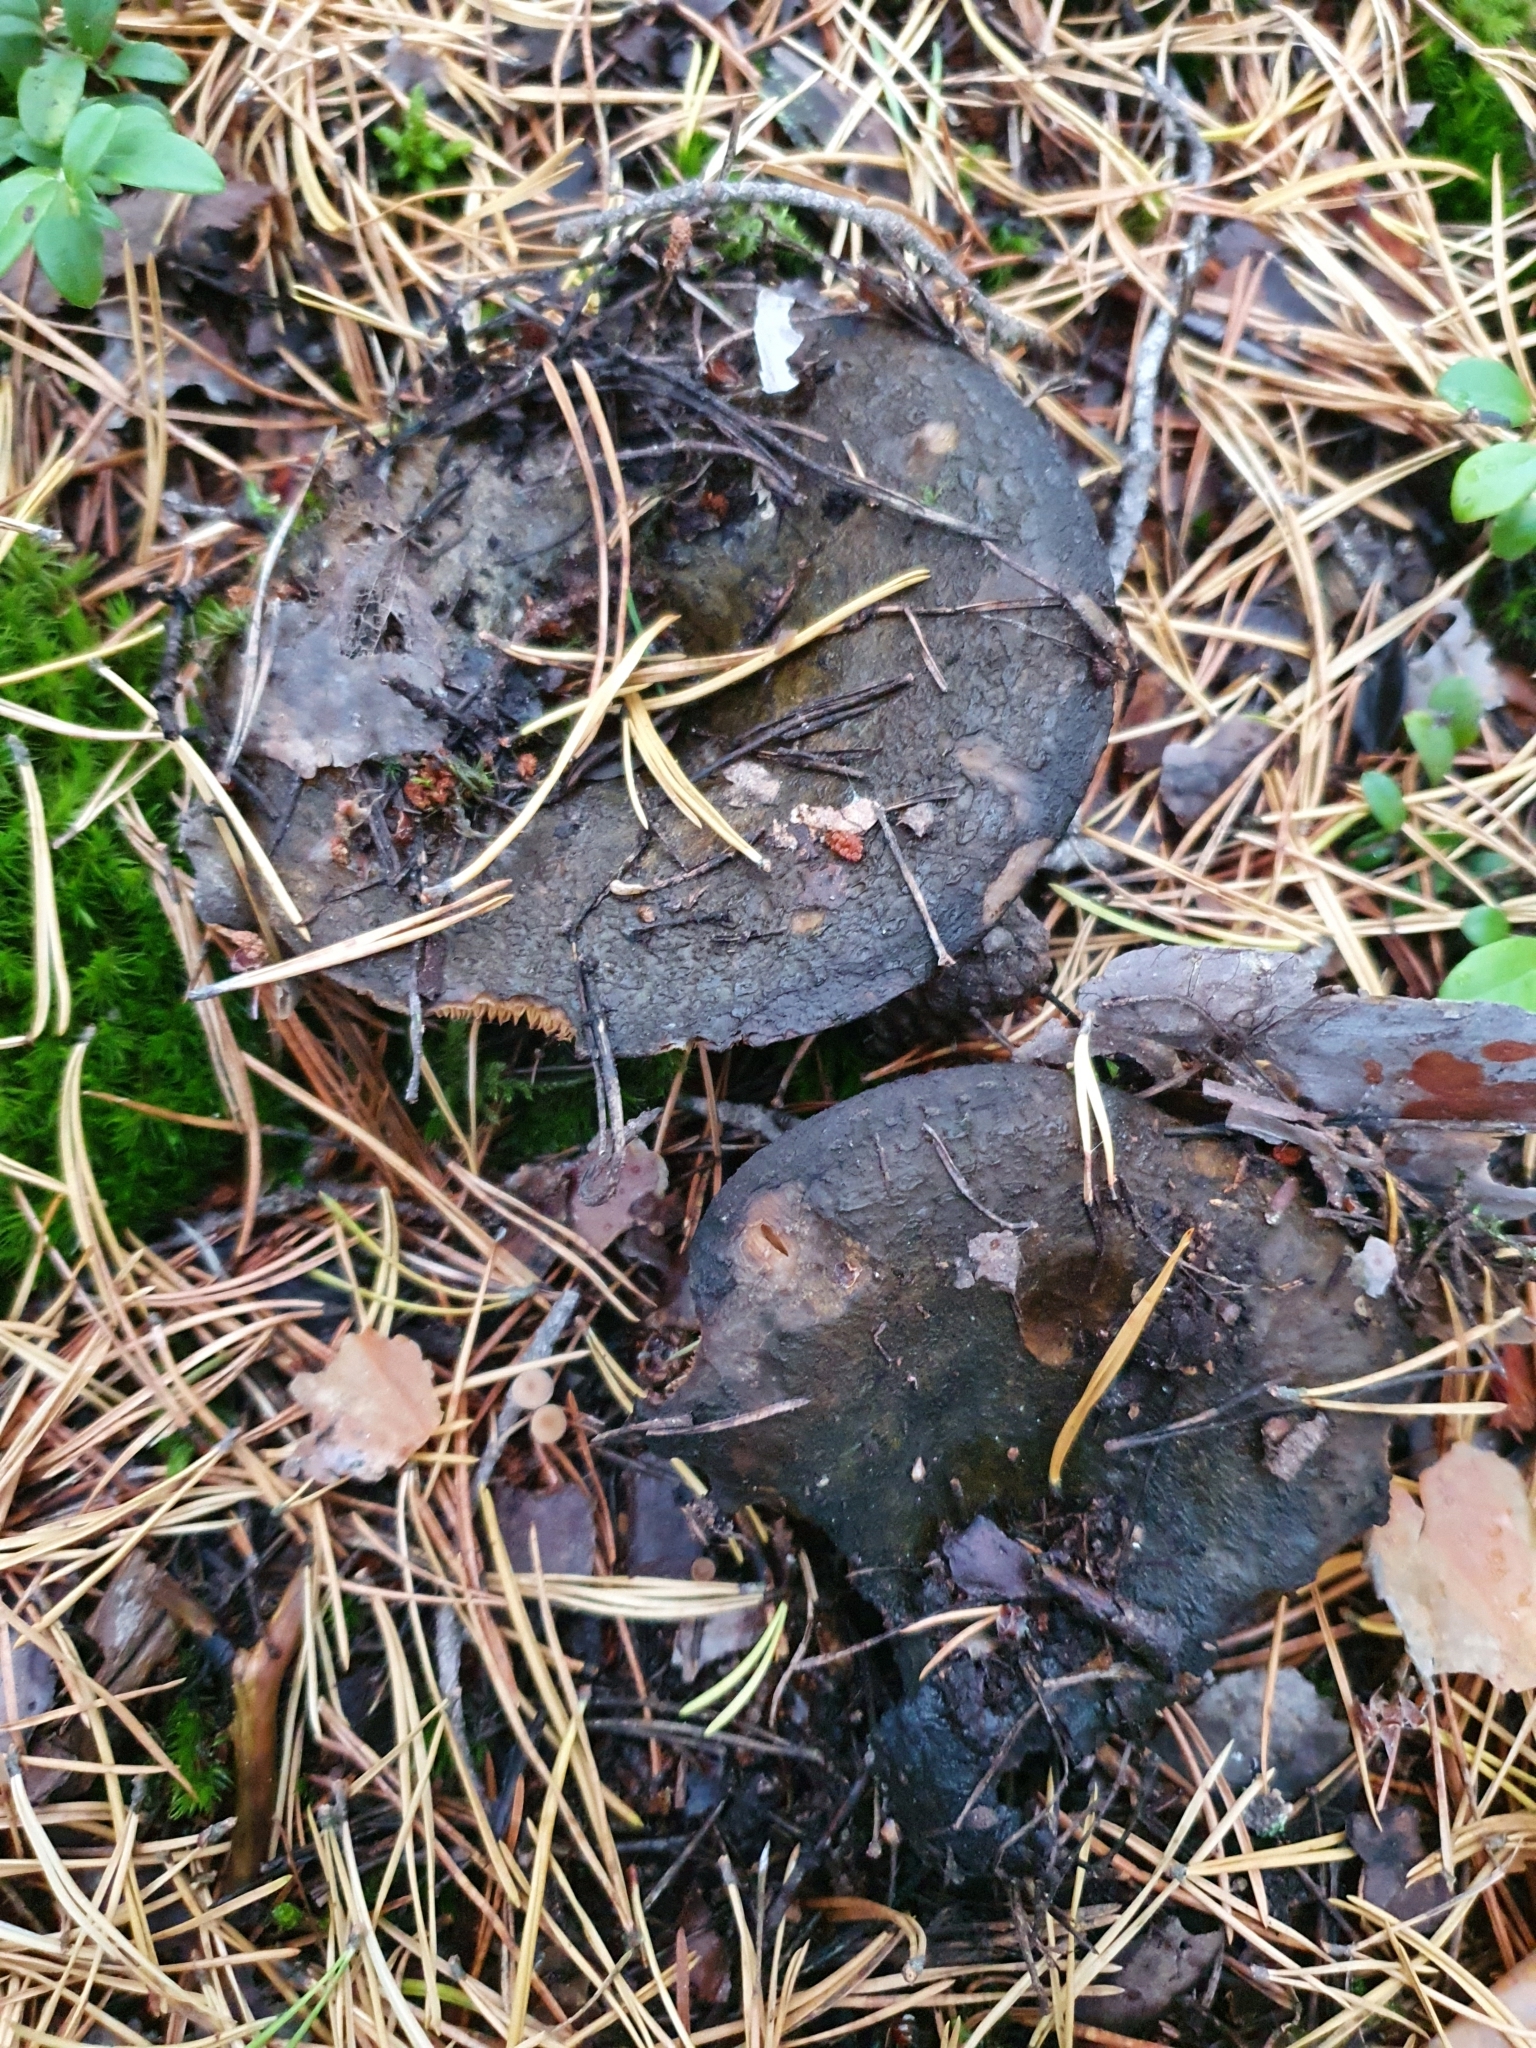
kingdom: Fungi
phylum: Basidiomycota
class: Agaricomycetes
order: Russulales
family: Russulaceae
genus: Lactarius
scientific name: Lactarius turpis
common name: Ugly milk-cap
